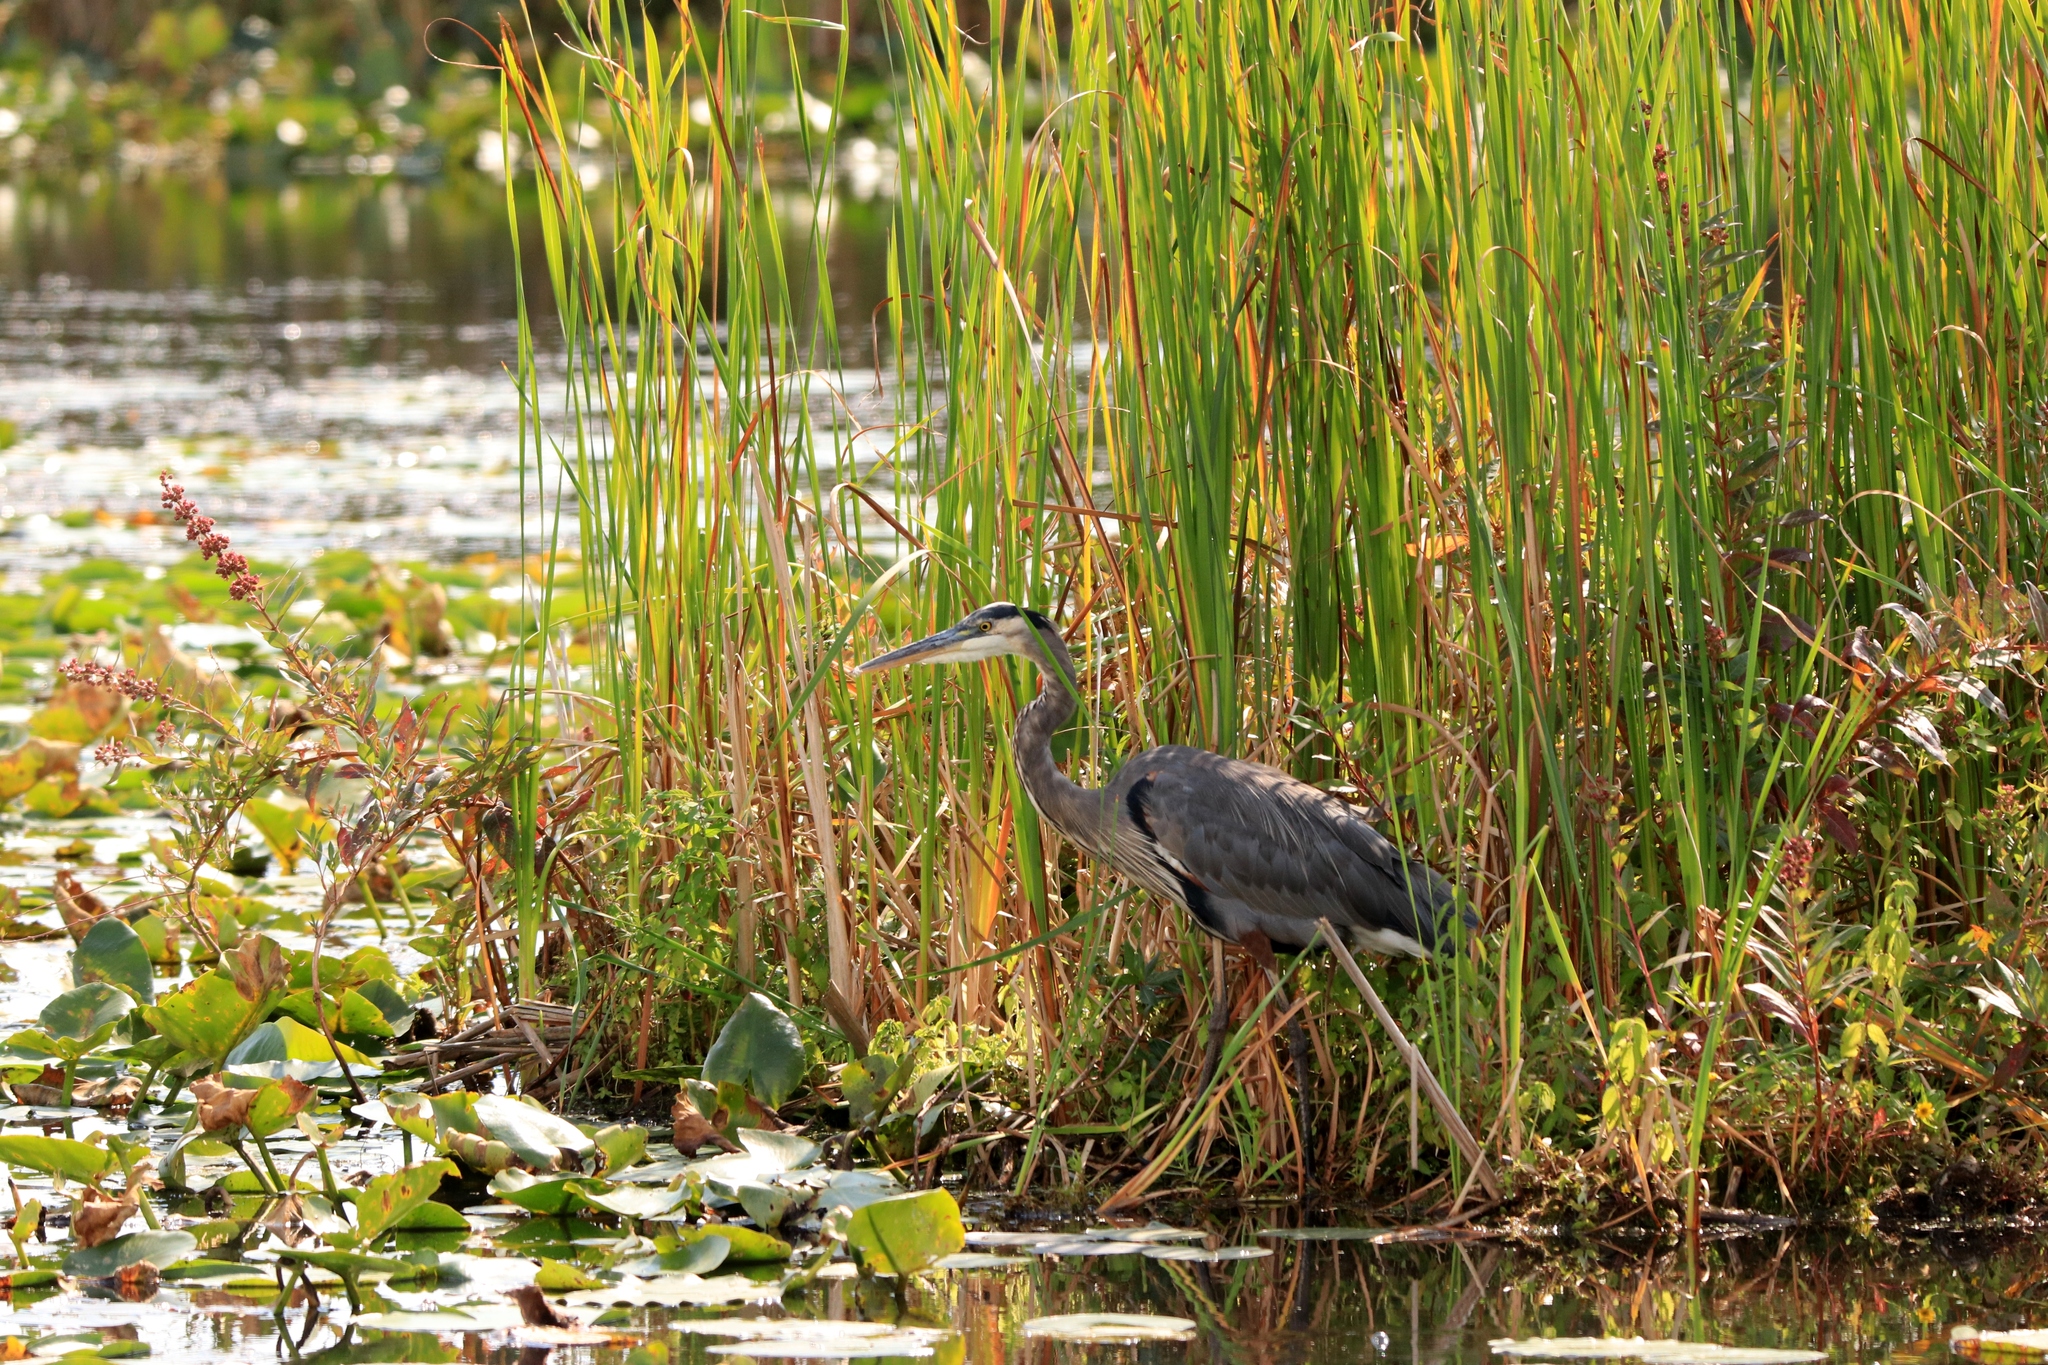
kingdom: Animalia
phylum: Chordata
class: Aves
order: Pelecaniformes
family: Ardeidae
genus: Ardea
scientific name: Ardea herodias
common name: Great blue heron
